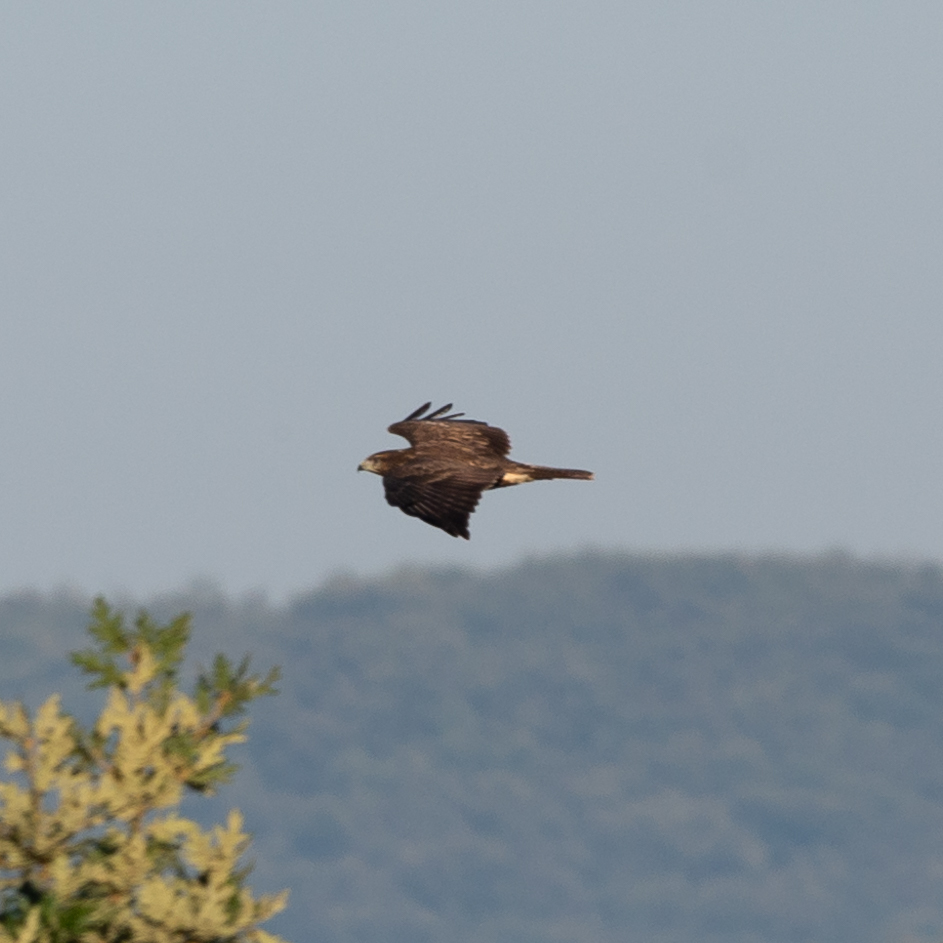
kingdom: Animalia
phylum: Chordata
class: Aves
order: Accipitriformes
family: Accipitridae
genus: Buteo
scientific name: Buteo buteo
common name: Common buzzard
